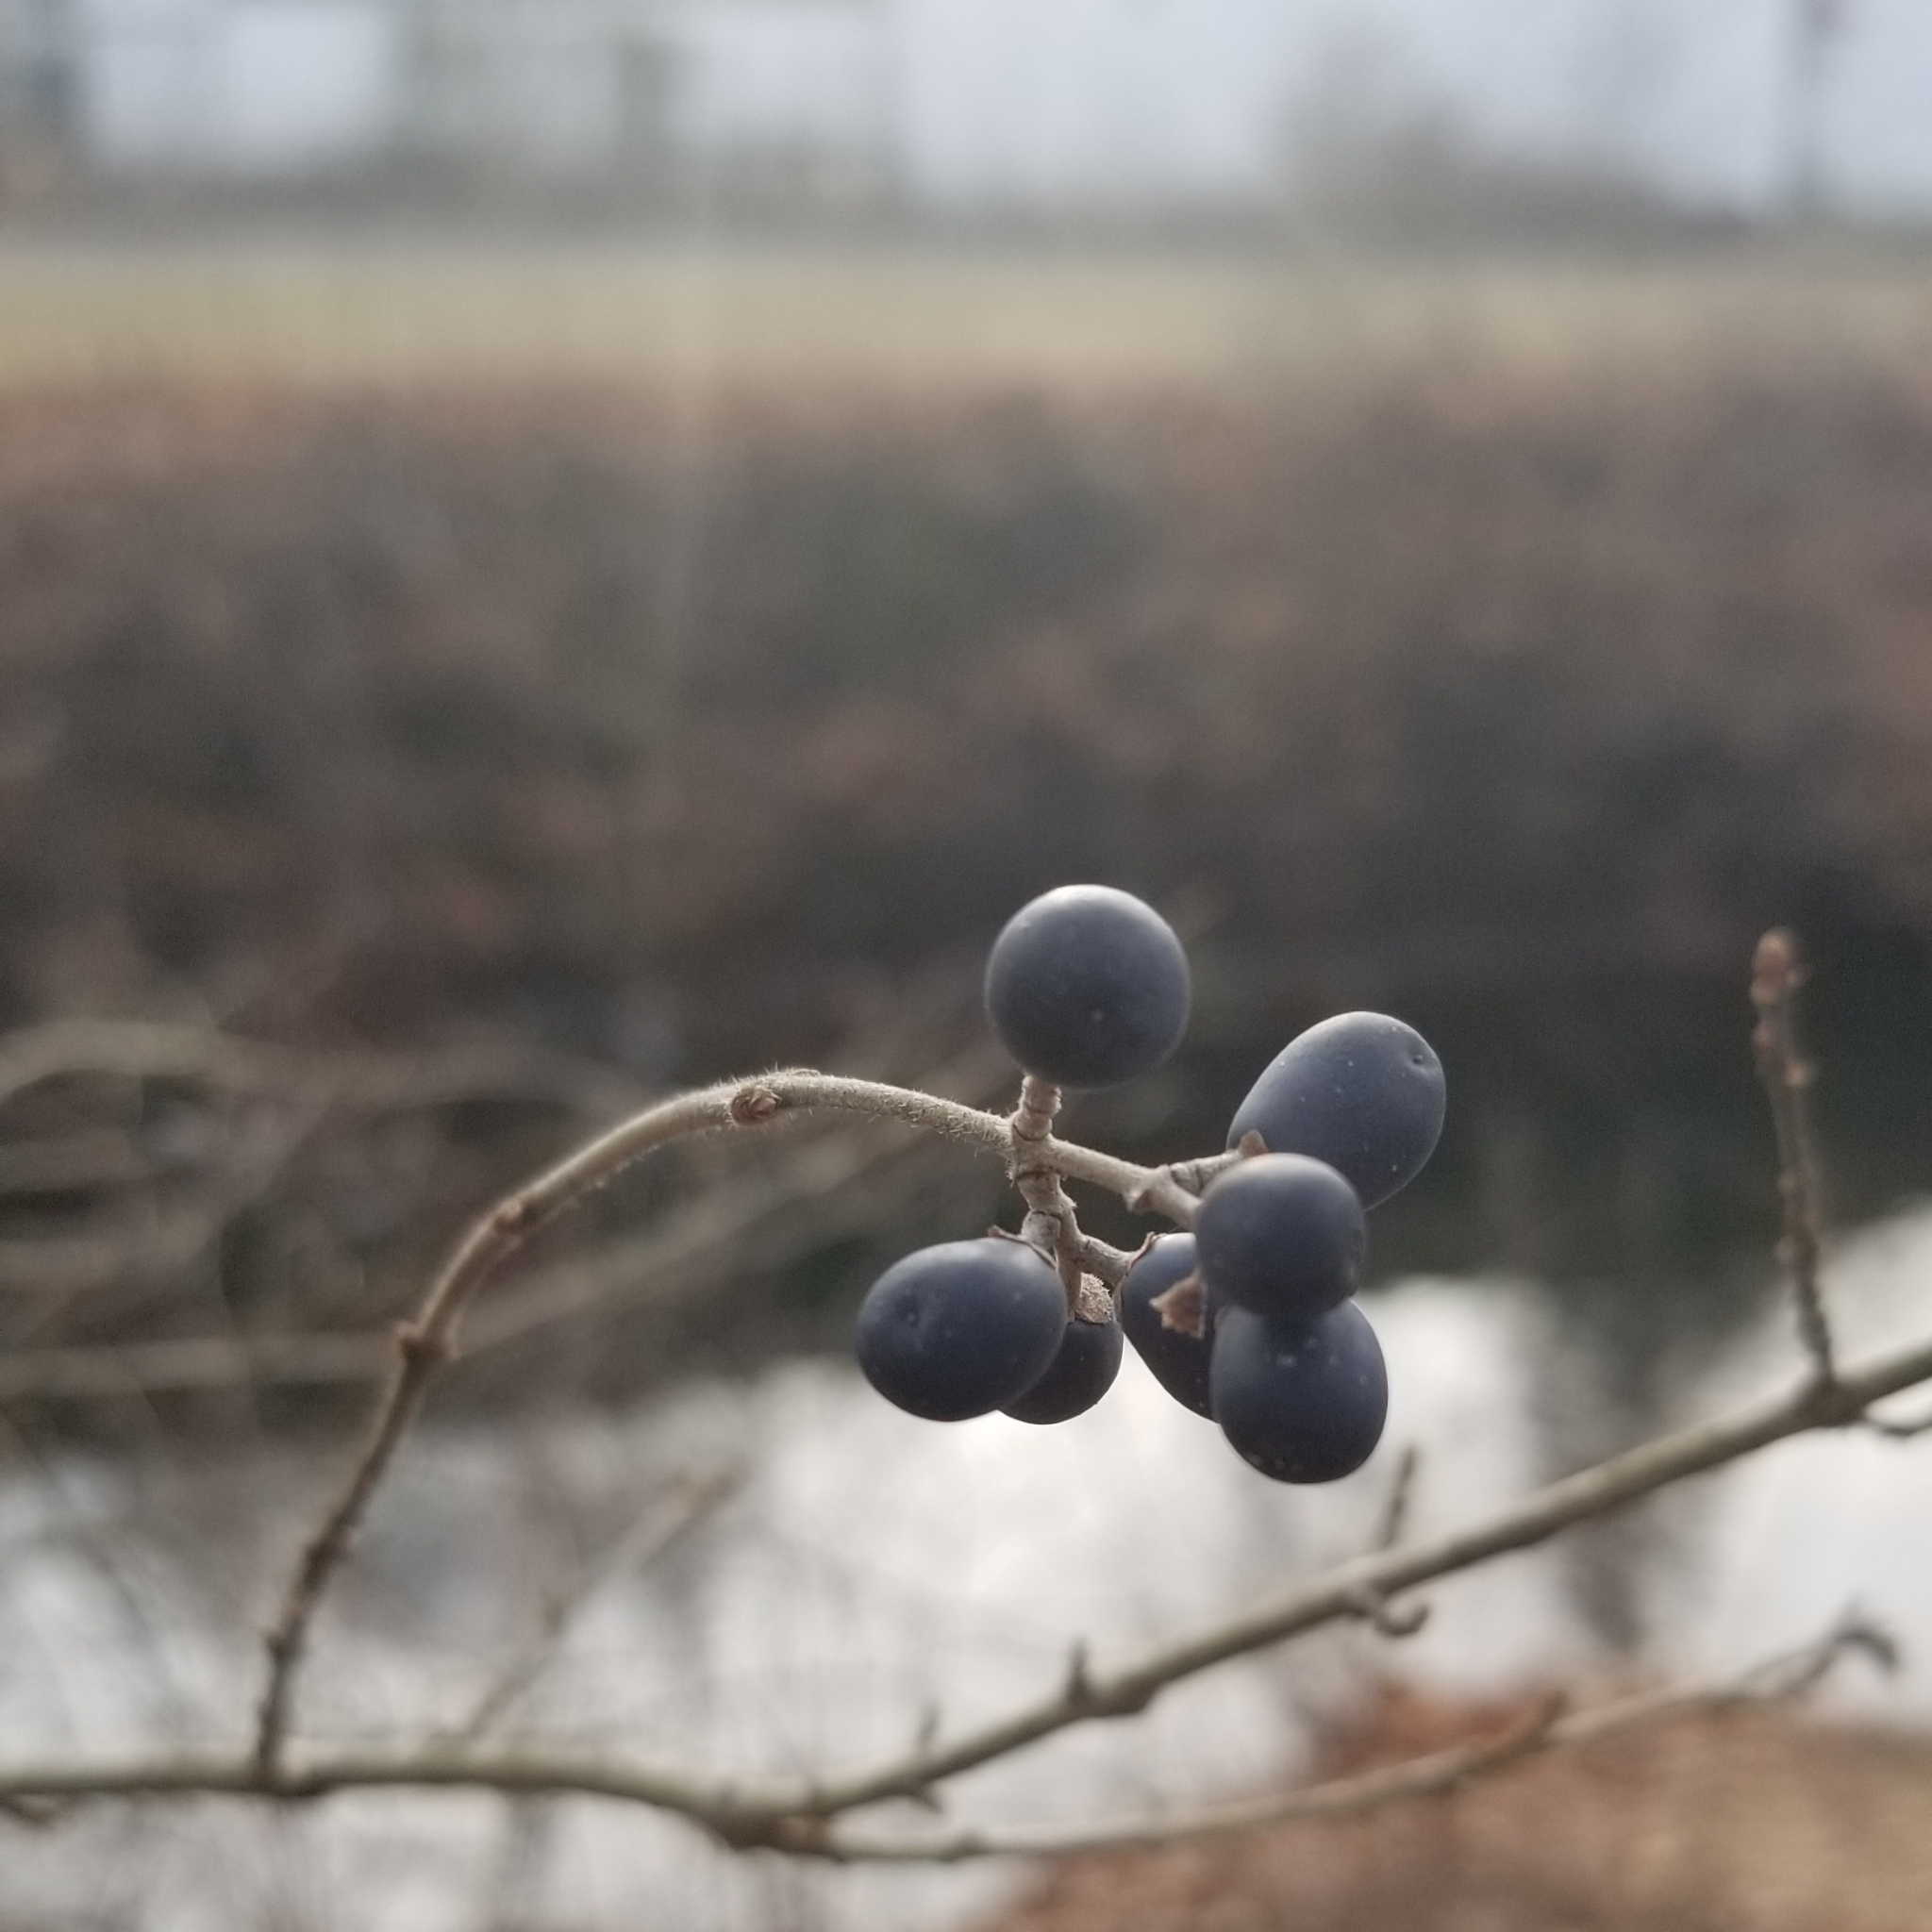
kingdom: Plantae
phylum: Tracheophyta
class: Magnoliopsida
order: Lamiales
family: Oleaceae
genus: Ligustrum
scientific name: Ligustrum obtusifolium
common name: Border privet
